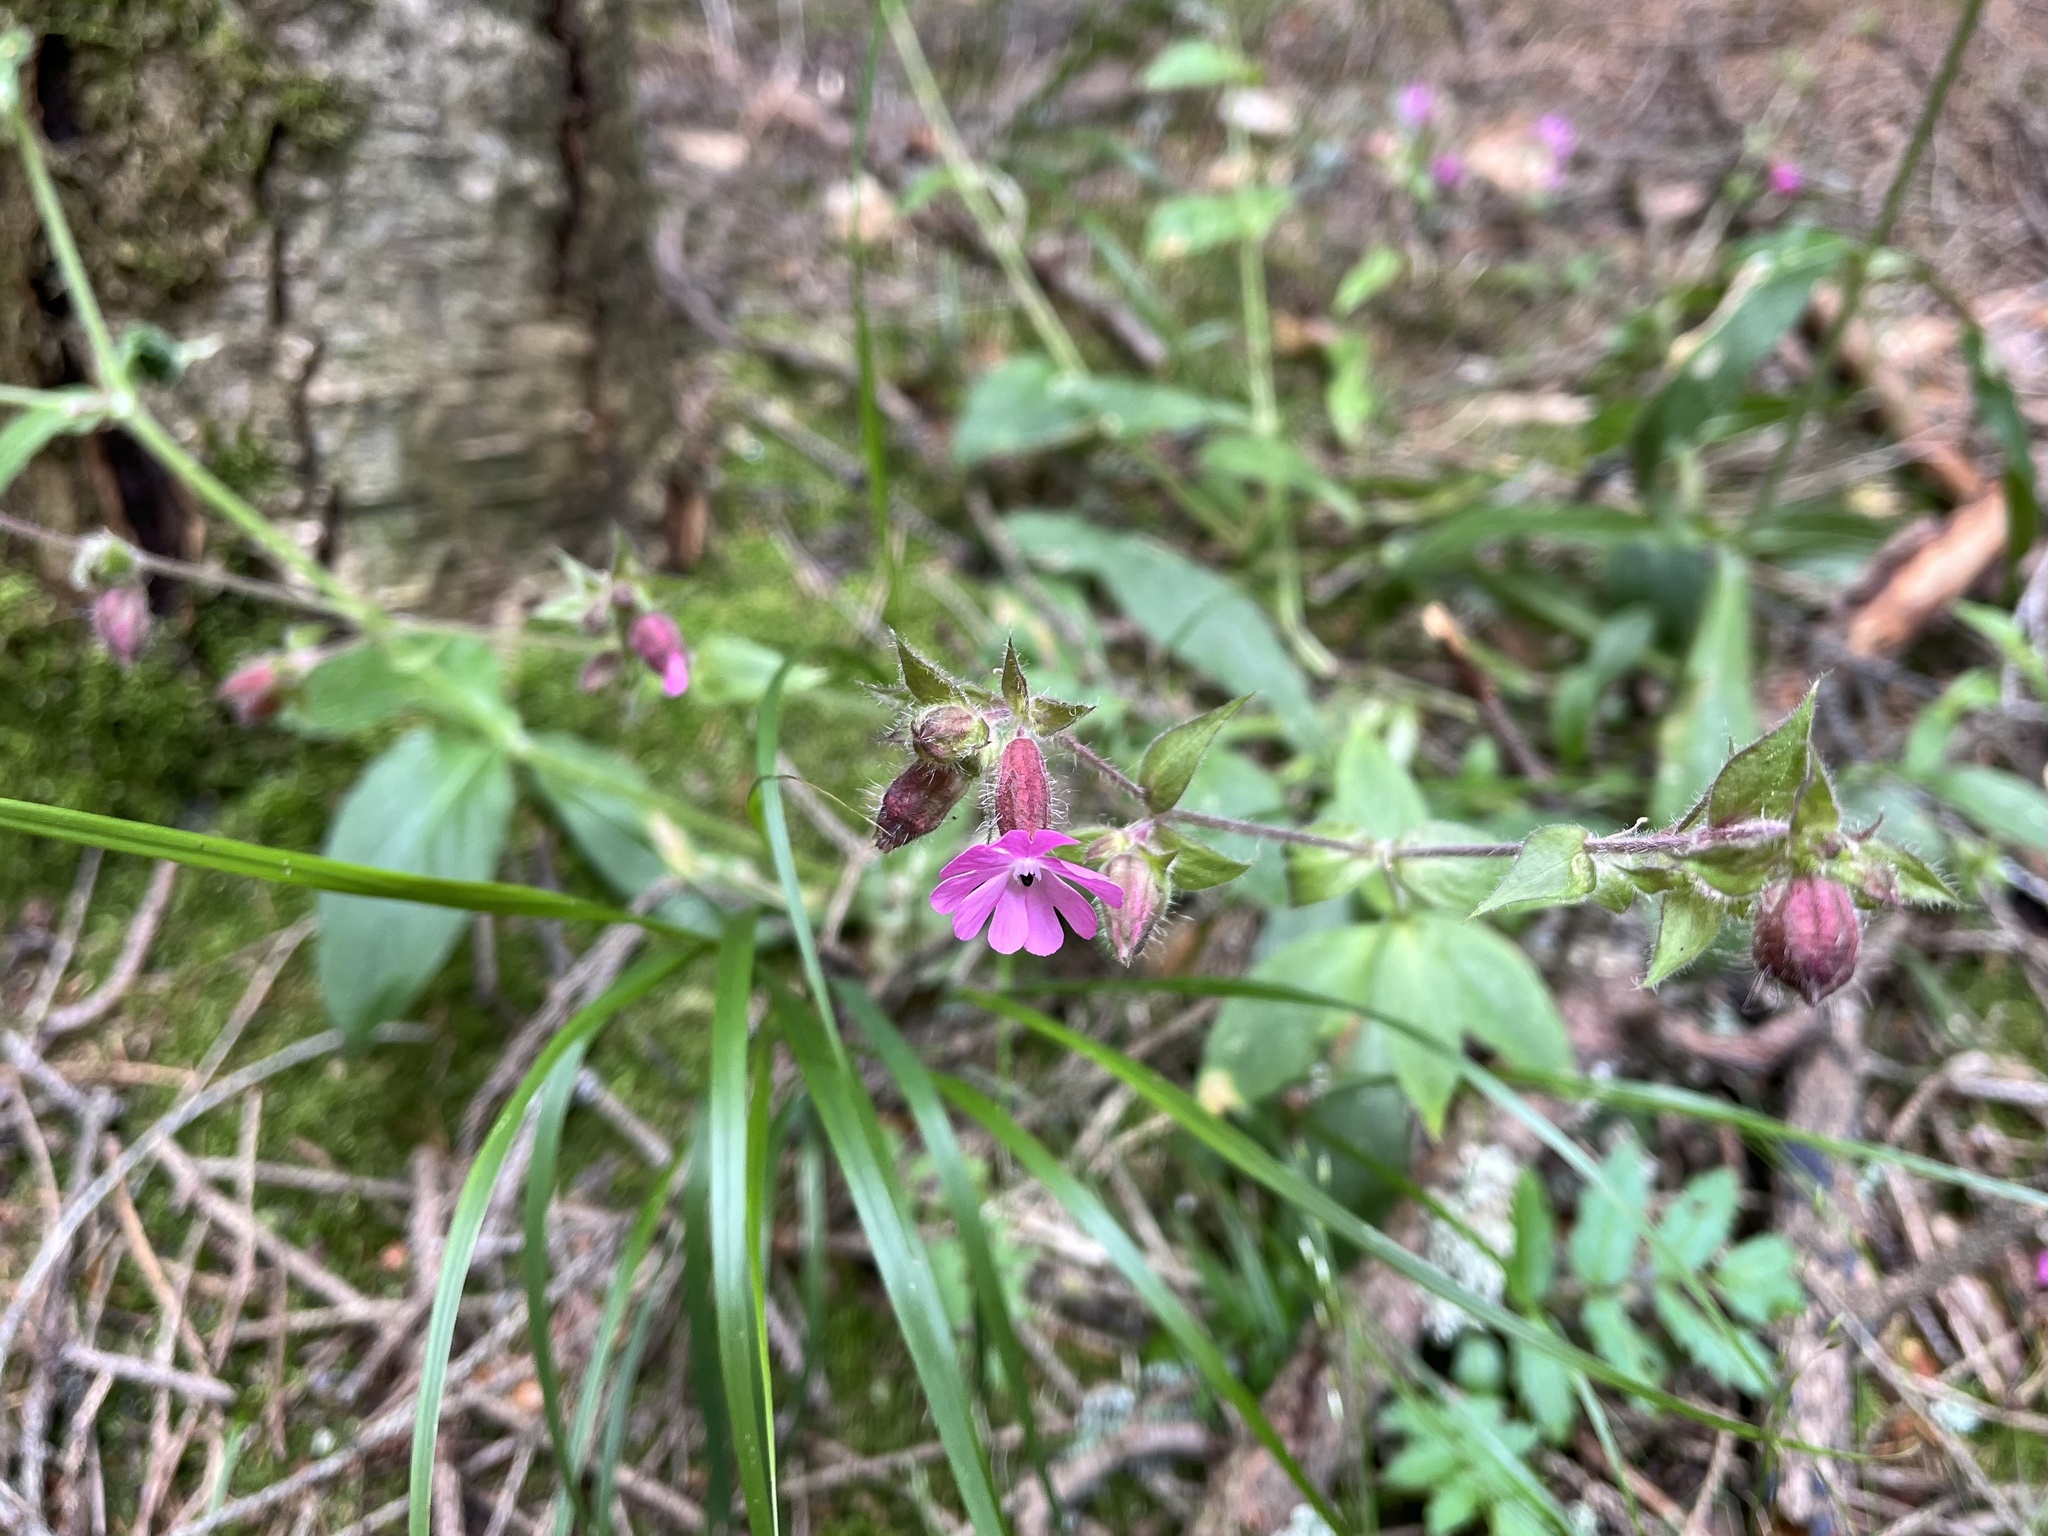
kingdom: Plantae
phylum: Tracheophyta
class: Magnoliopsida
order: Caryophyllales
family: Caryophyllaceae
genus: Silene
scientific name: Silene dioica
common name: Red campion
